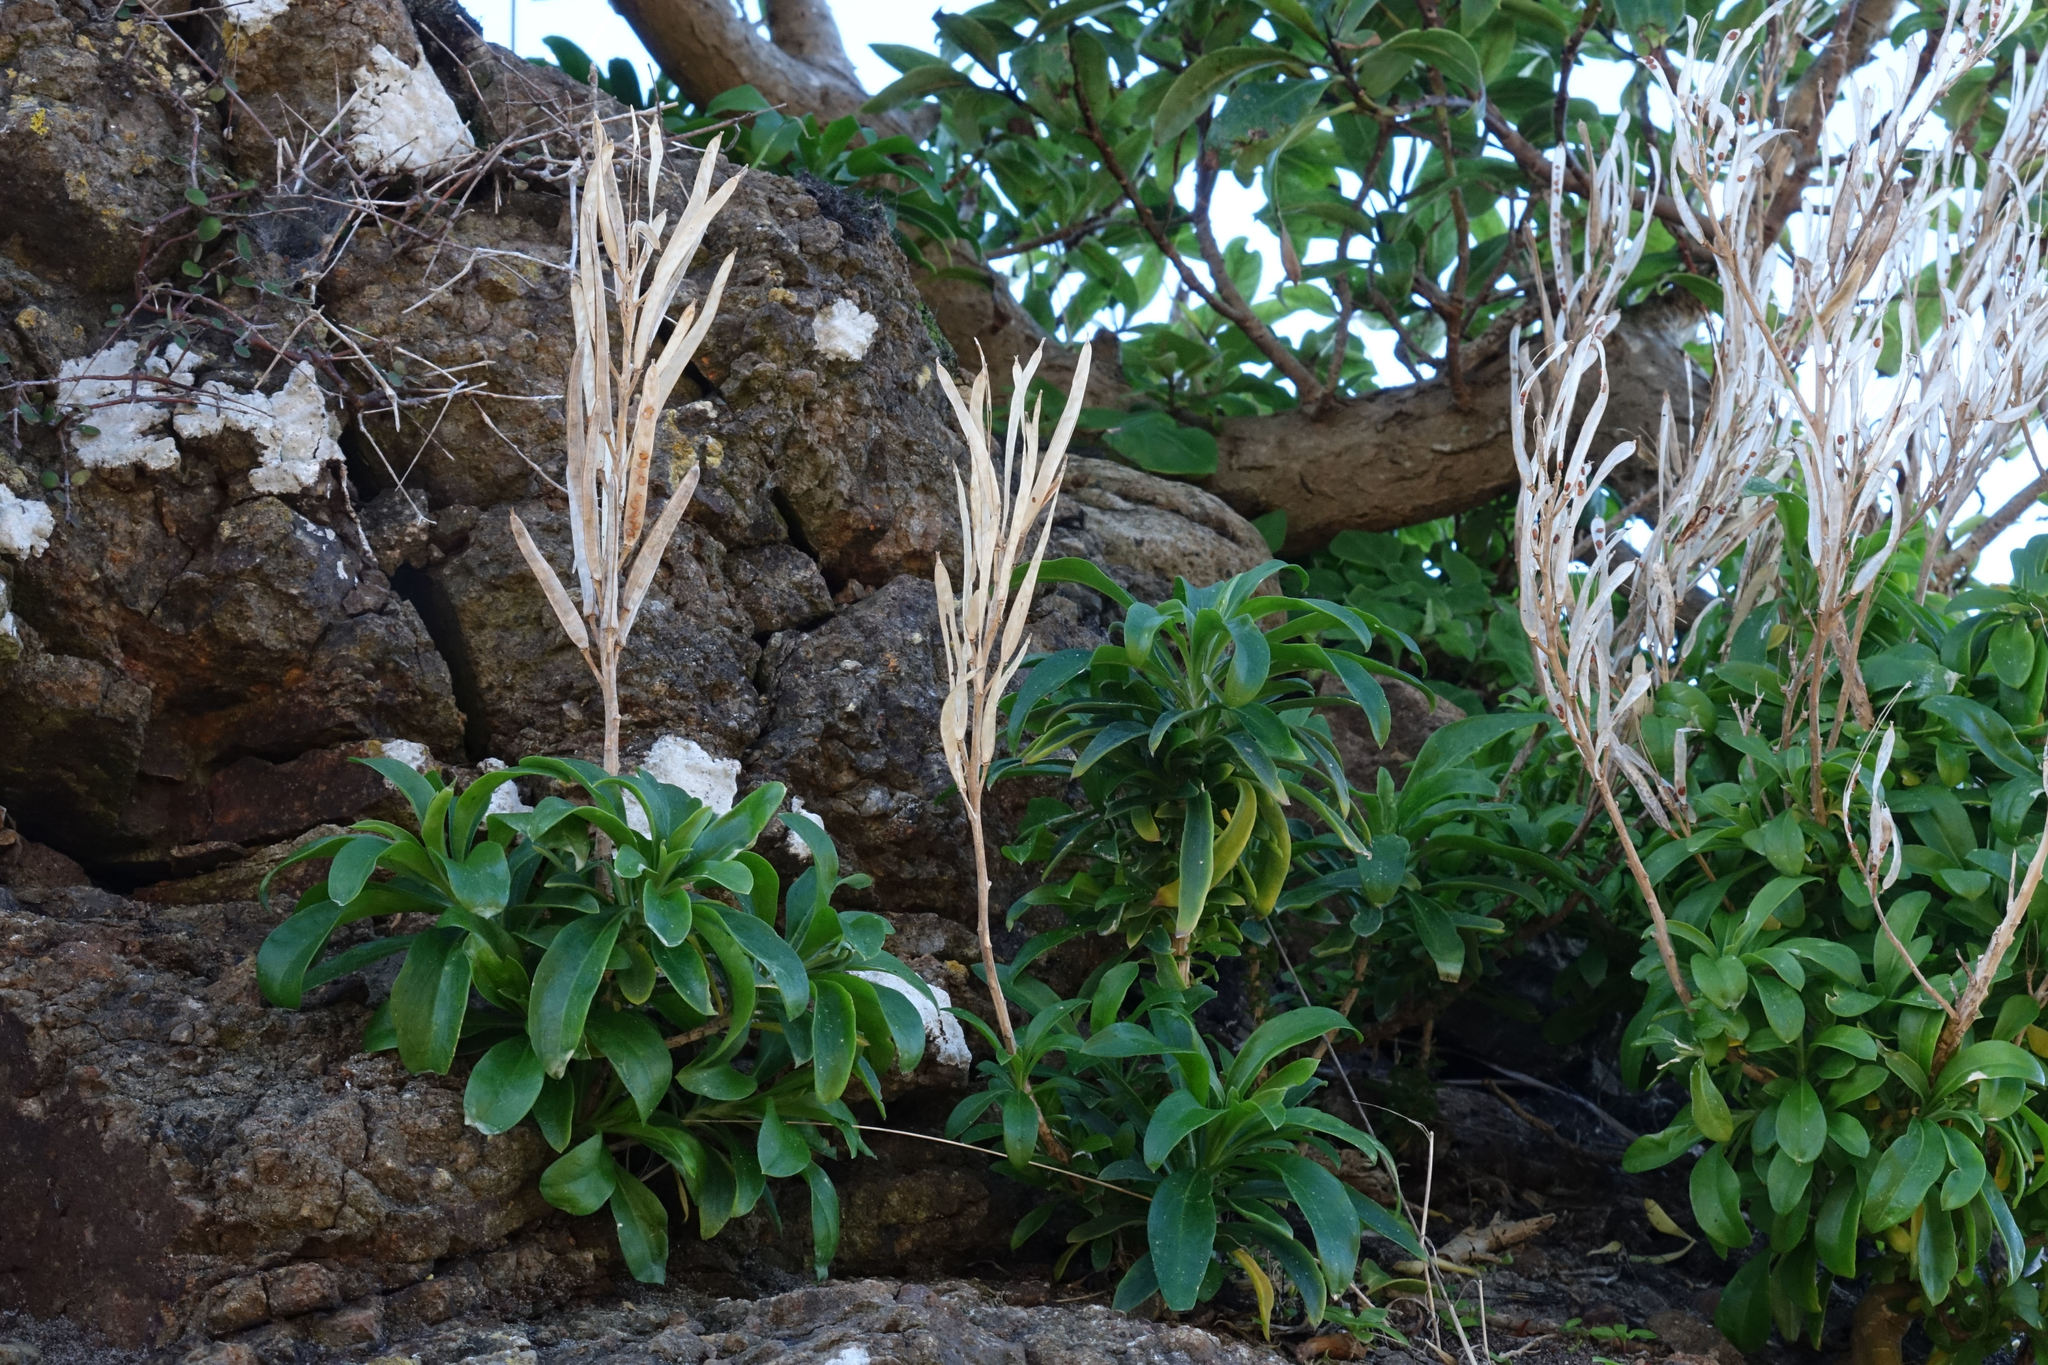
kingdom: Plantae
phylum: Tracheophyta
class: Magnoliopsida
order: Brassicales
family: Brassicaceae
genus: Erysimum
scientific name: Erysimum cheiri
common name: Wallflower
